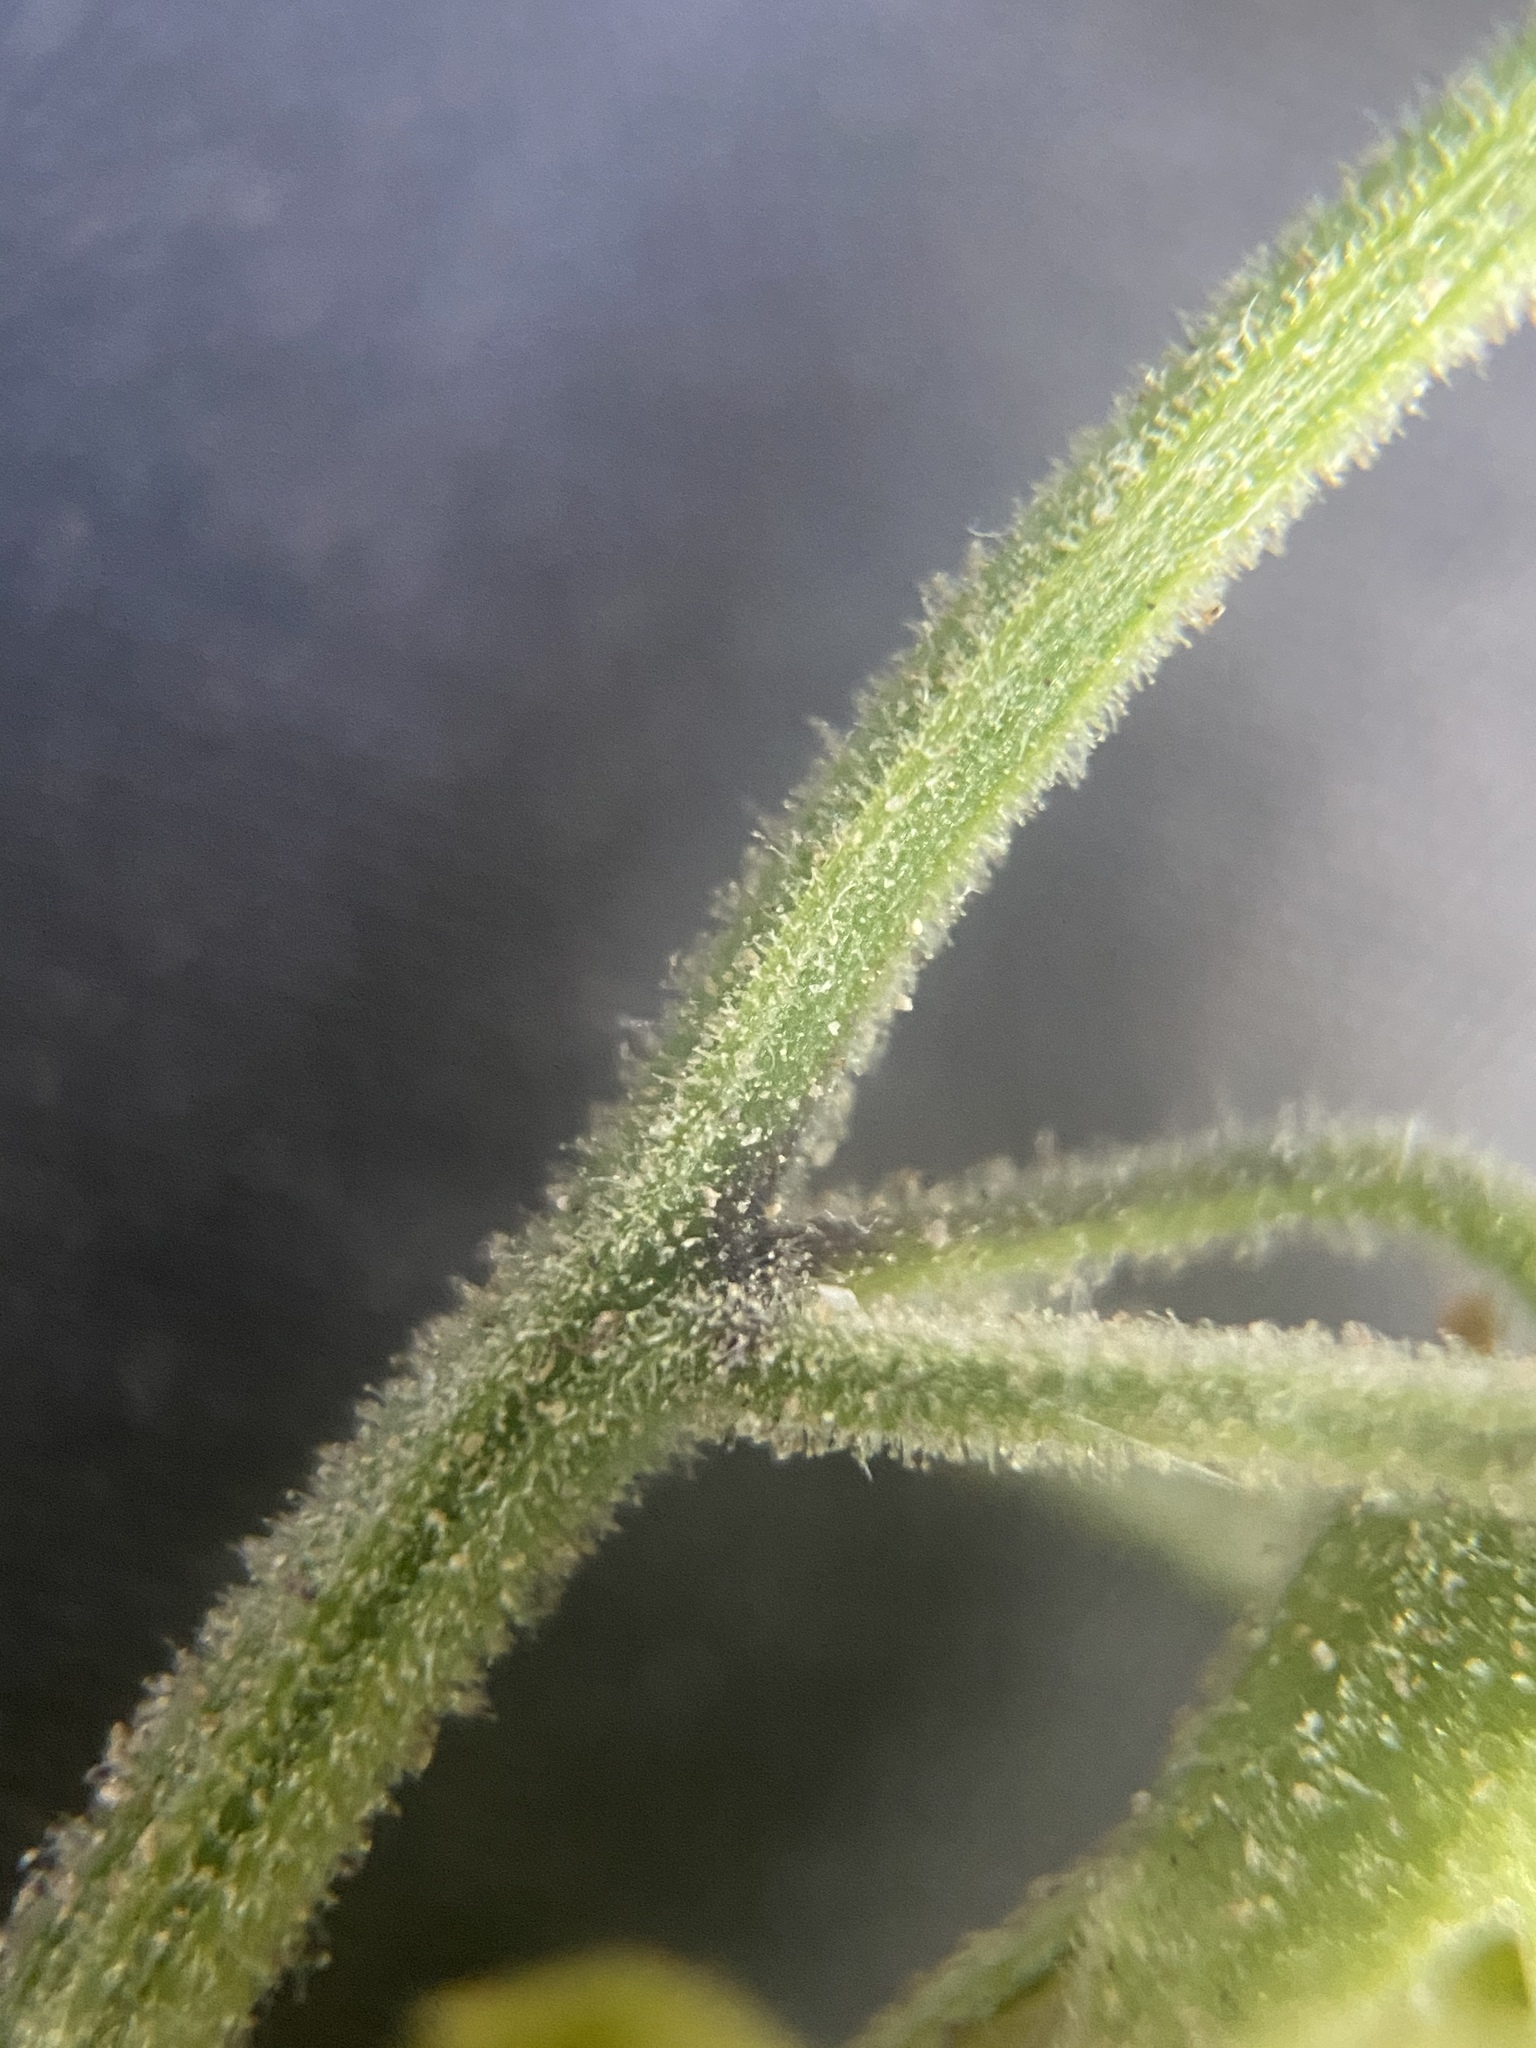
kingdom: Plantae
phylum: Tracheophyta
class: Magnoliopsida
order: Solanales
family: Solanaceae
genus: Physalis
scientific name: Physalis hederifolia
